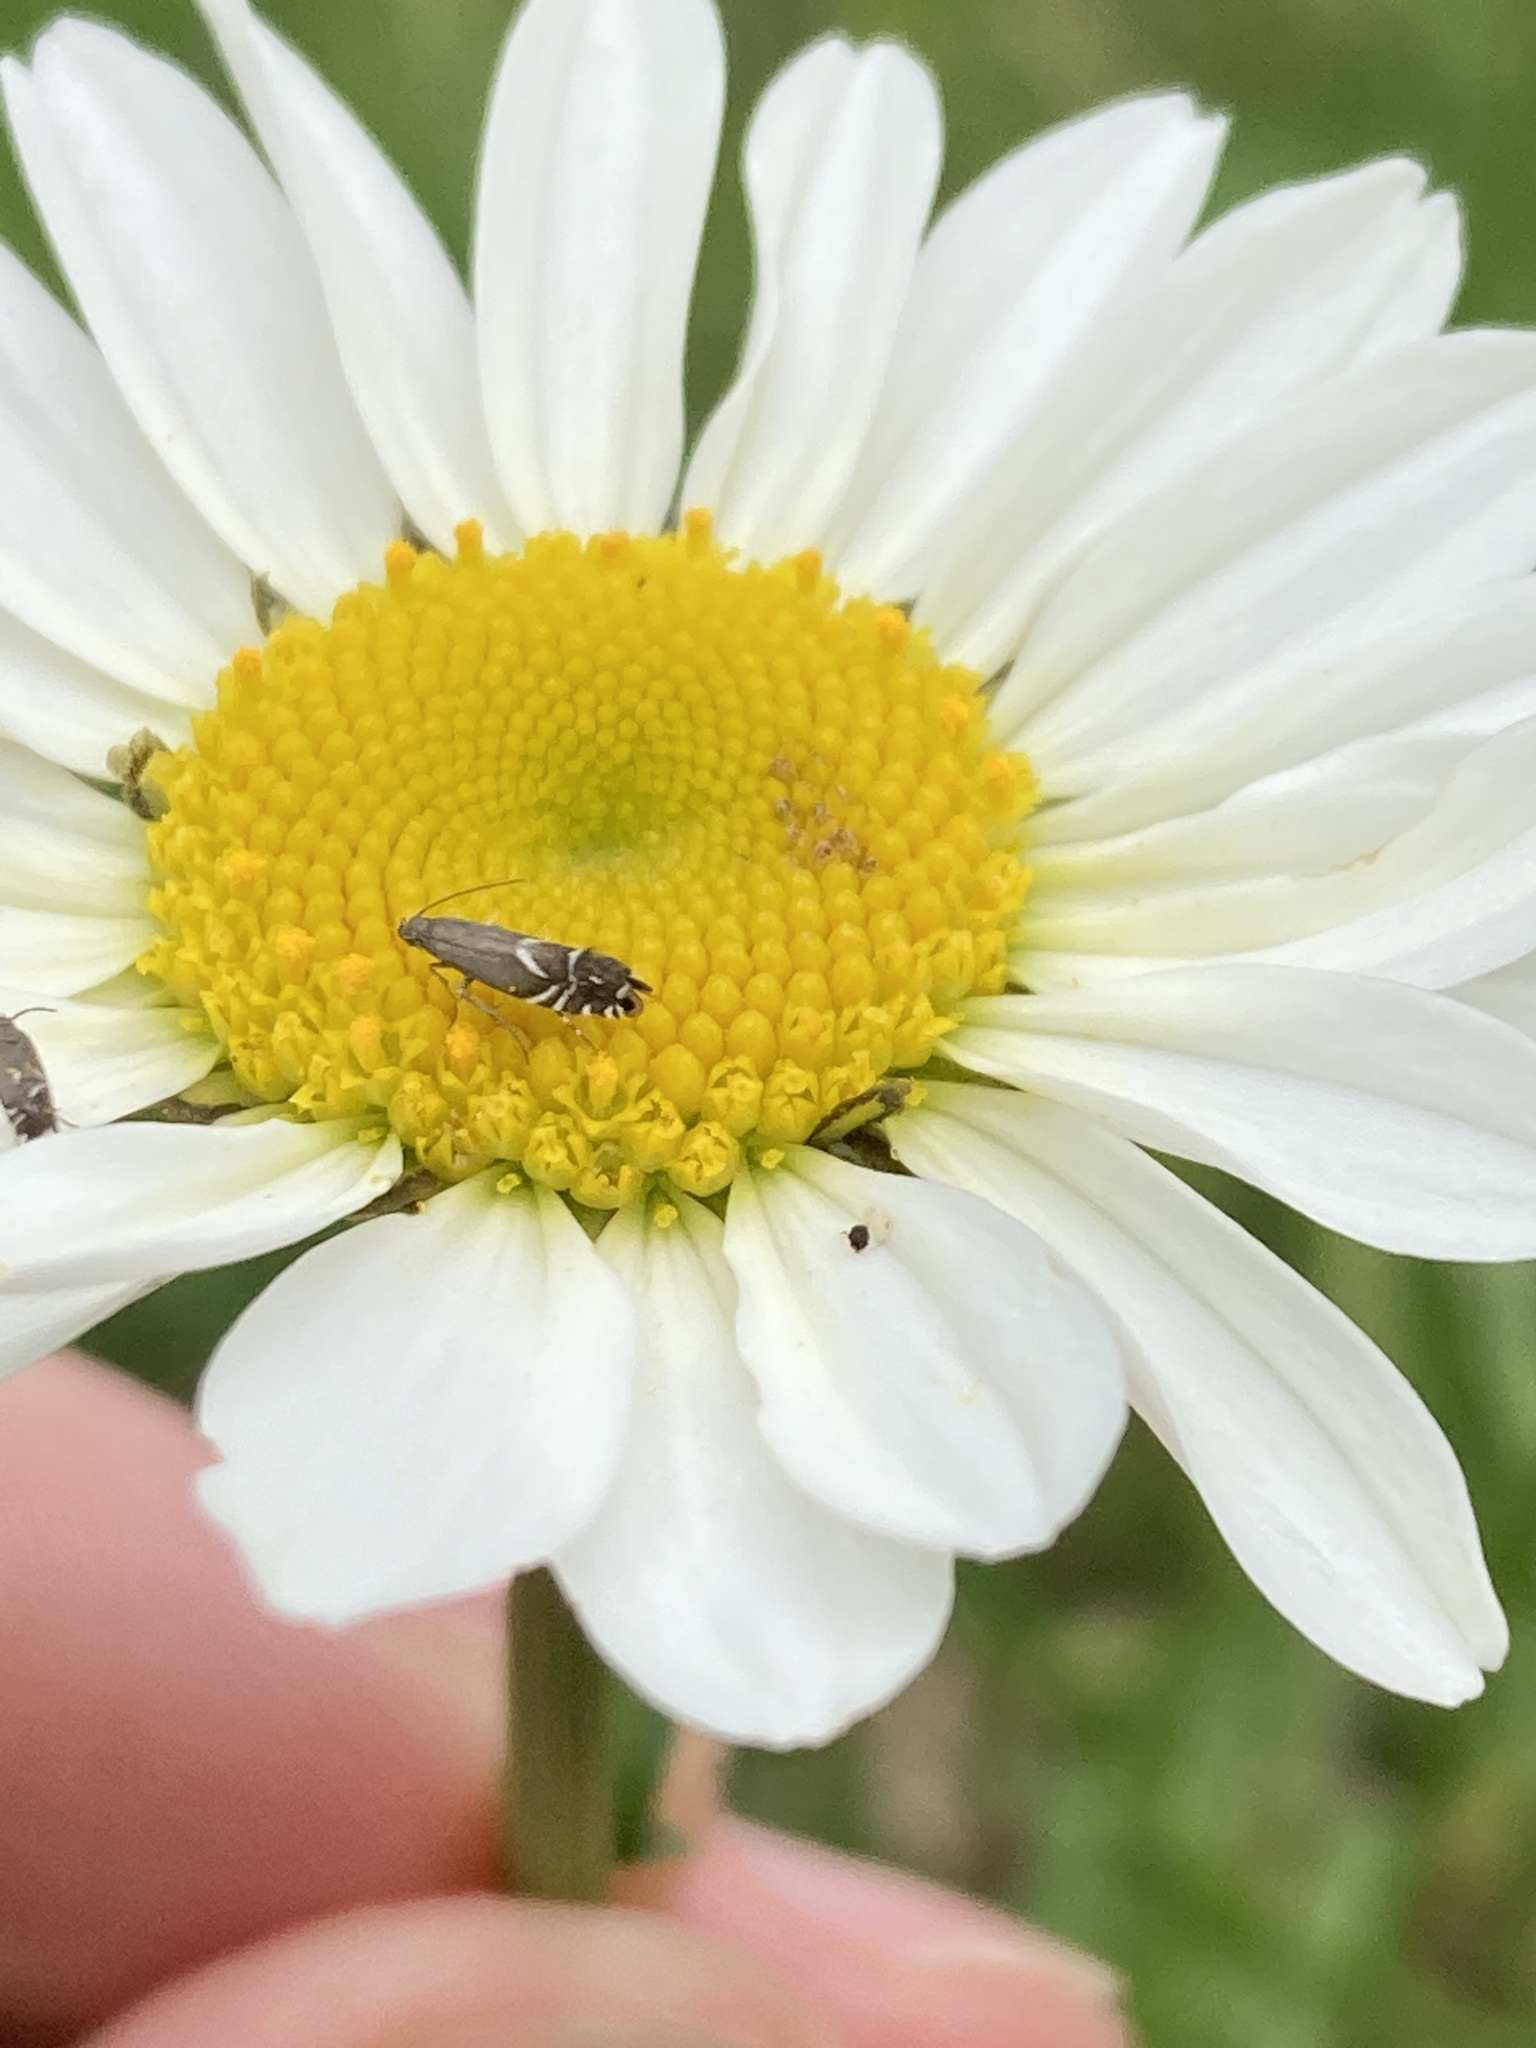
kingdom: Animalia
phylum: Arthropoda
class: Insecta
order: Lepidoptera
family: Glyphipterigidae
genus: Glyphipterix
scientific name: Glyphipterix simpliciella
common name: Cocksfoot moth
